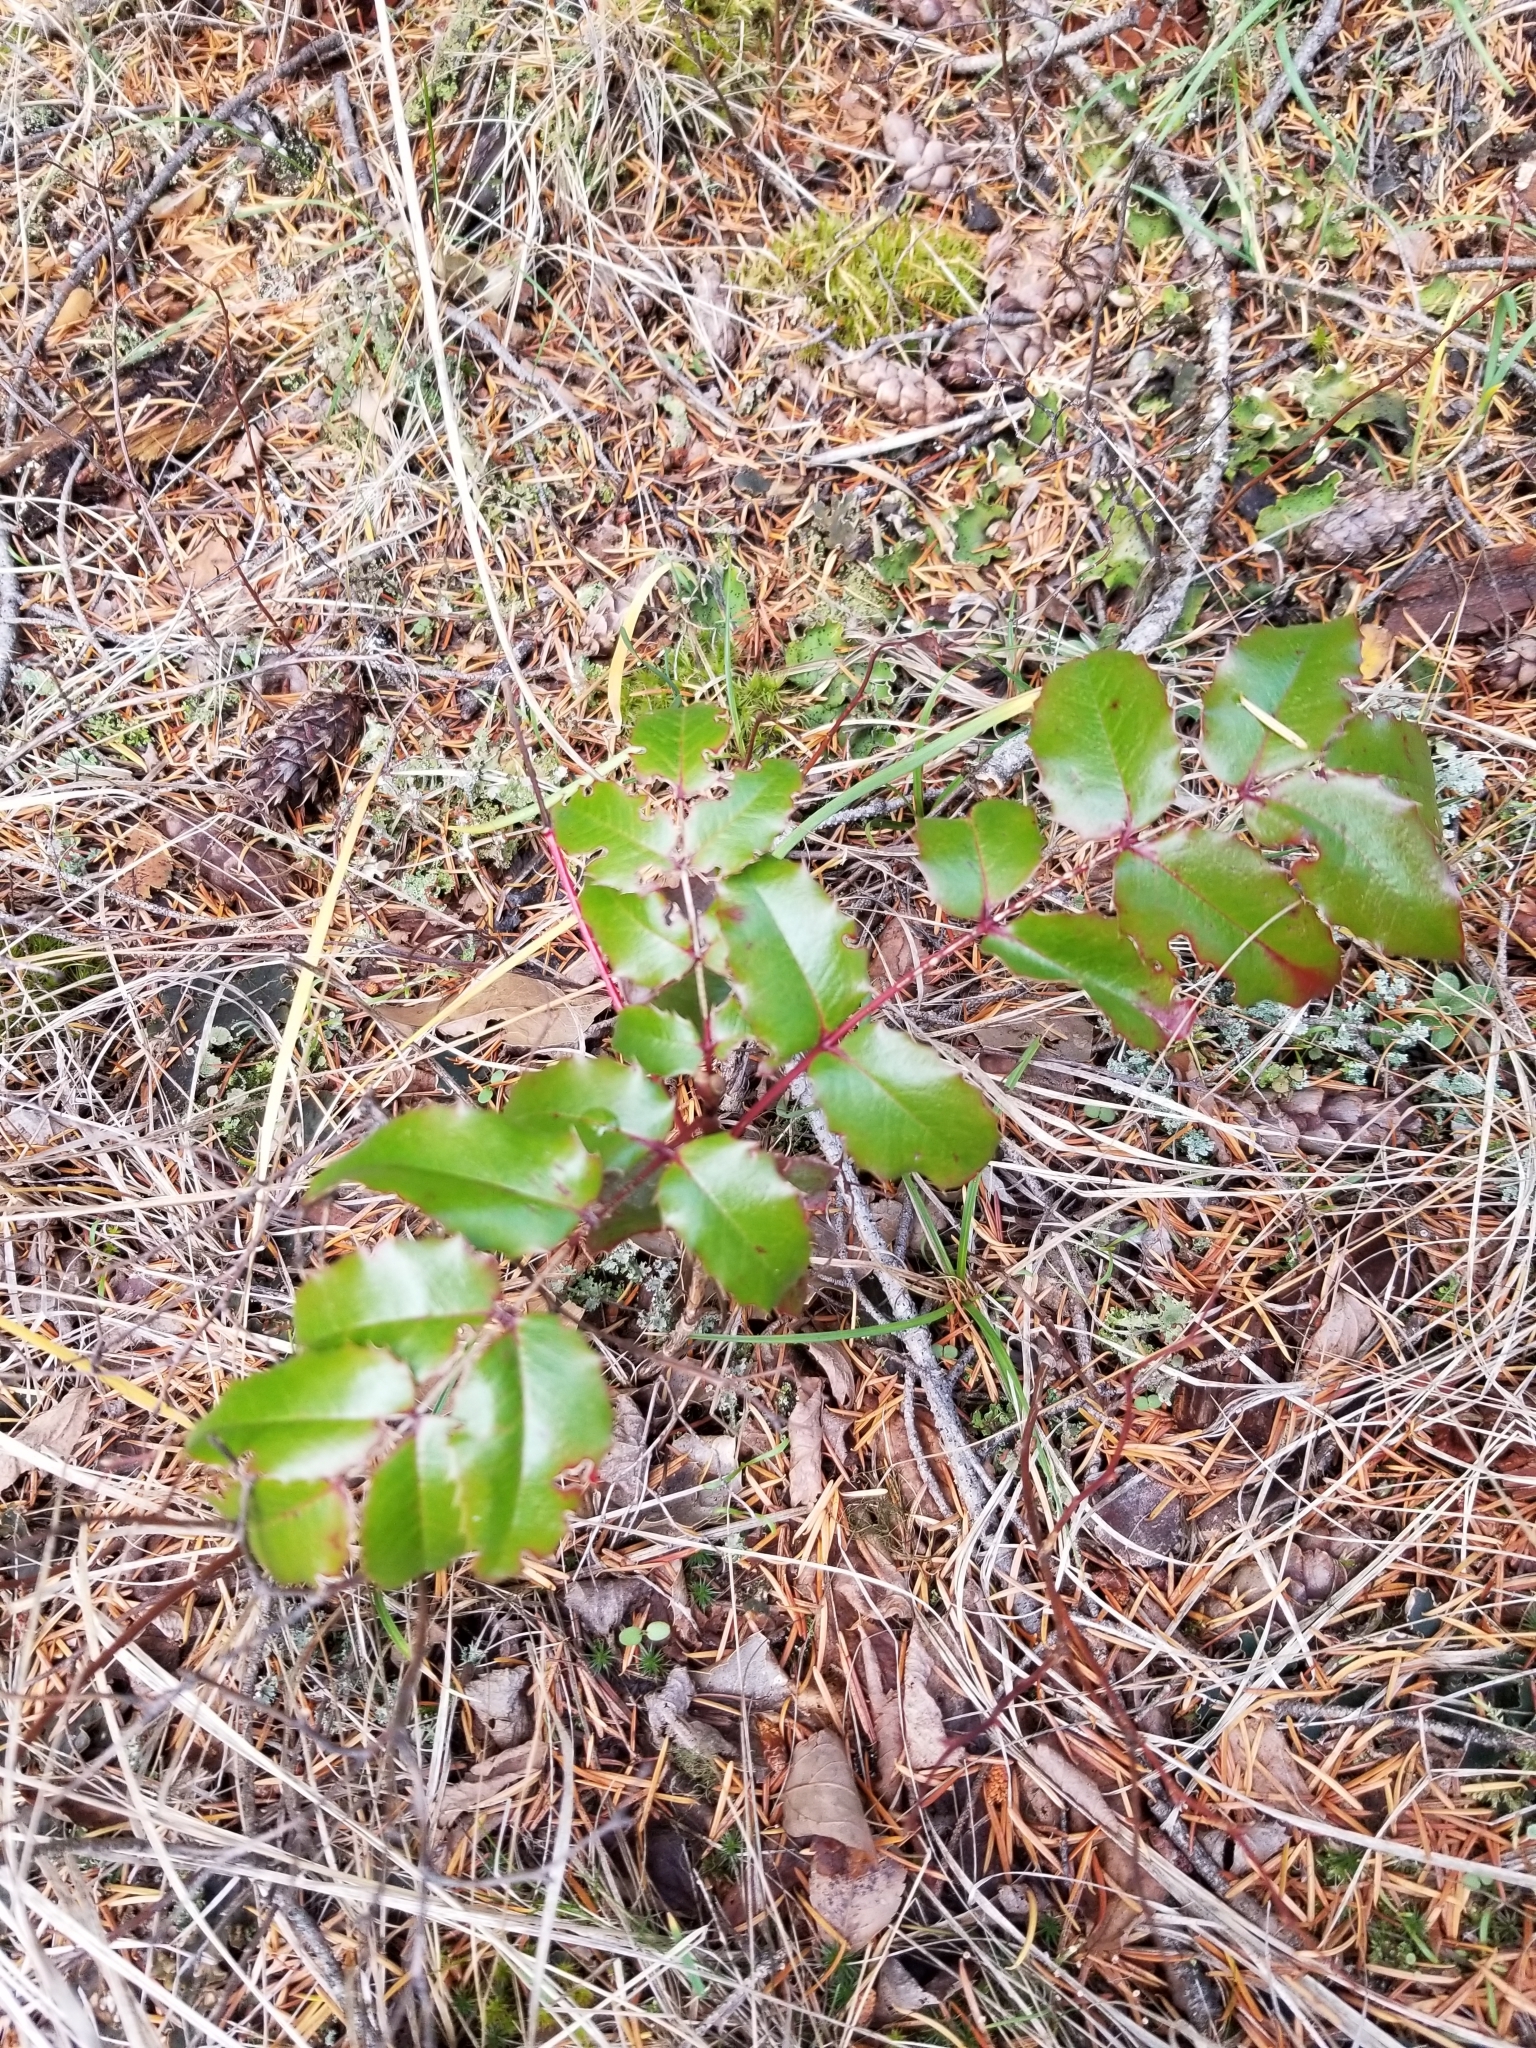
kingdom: Plantae
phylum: Tracheophyta
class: Magnoliopsida
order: Ranunculales
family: Berberidaceae
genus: Mahonia
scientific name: Mahonia aquifolium
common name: Oregon-grape
